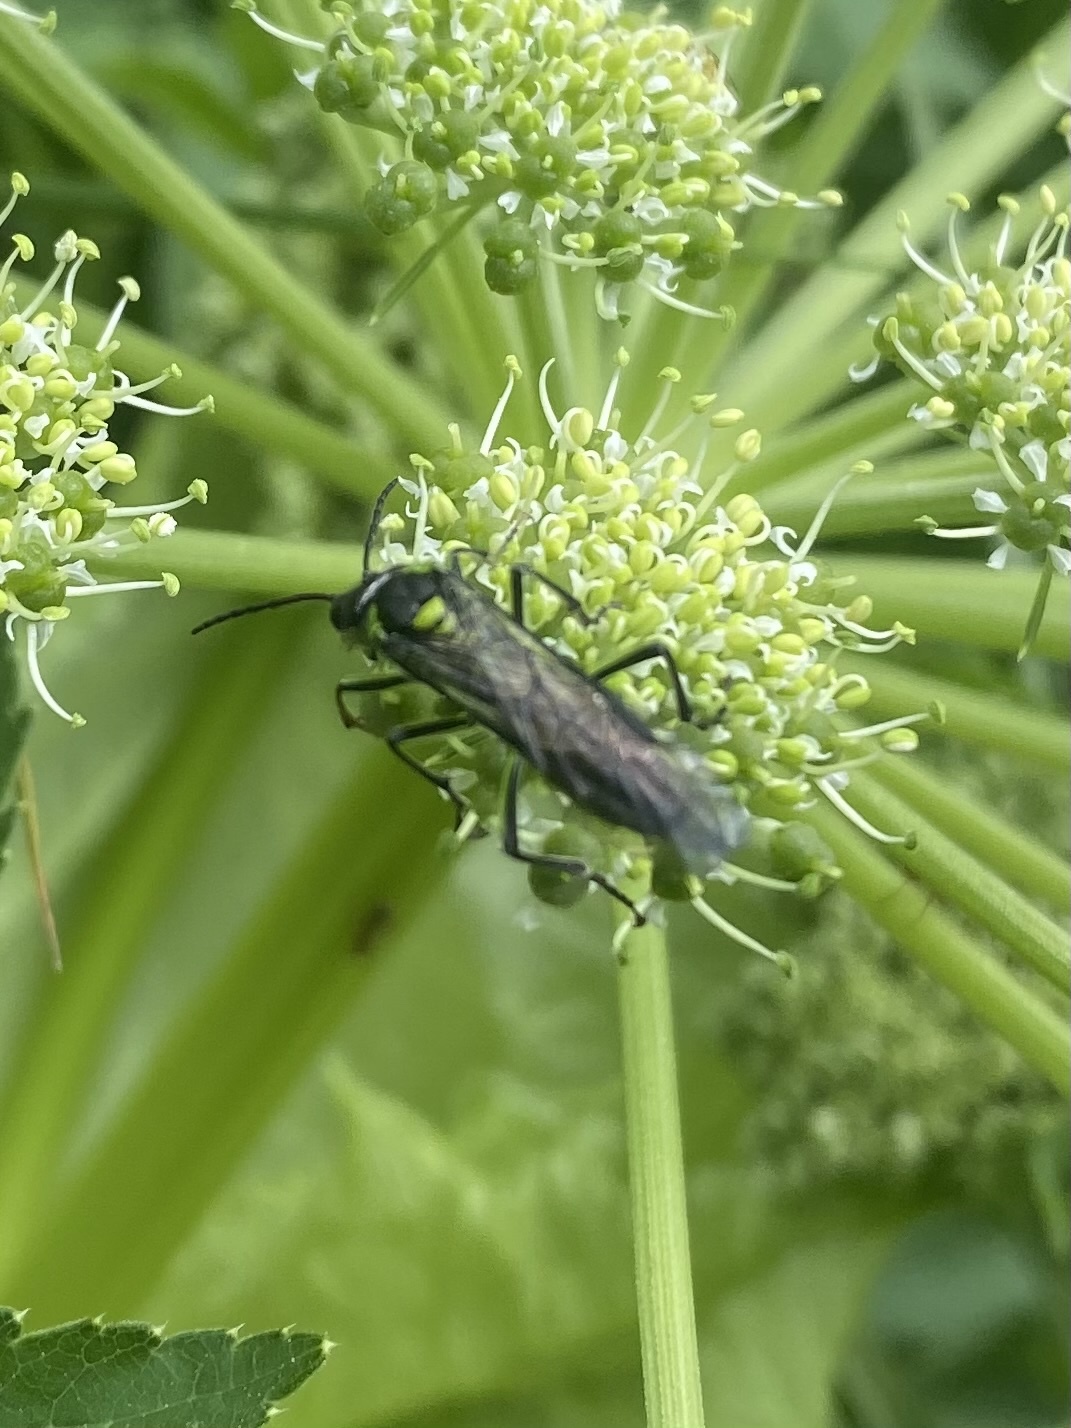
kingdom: Animalia
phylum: Arthropoda
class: Insecta
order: Hymenoptera
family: Tenthredinidae
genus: Tenthredo
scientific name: Tenthredo mesomela
